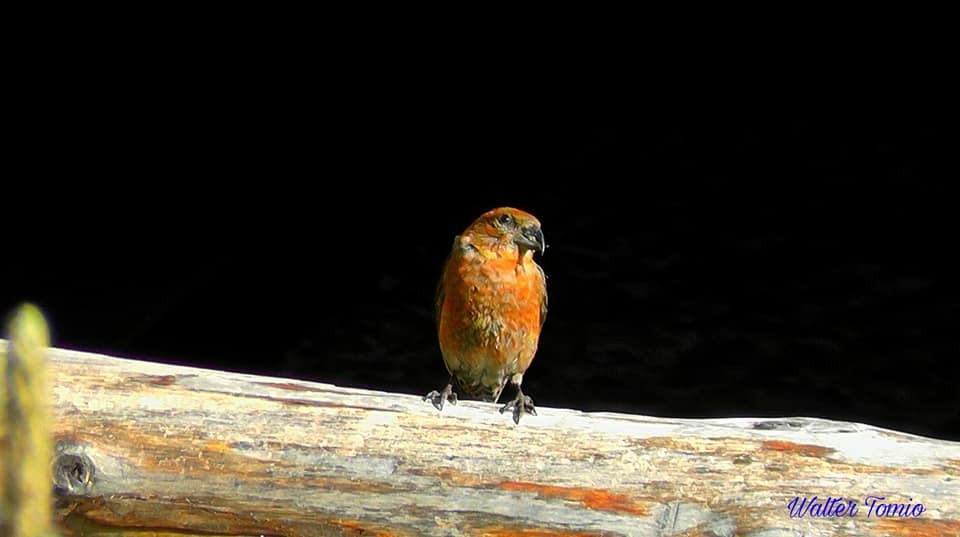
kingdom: Animalia
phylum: Chordata
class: Aves
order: Passeriformes
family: Fringillidae
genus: Loxia
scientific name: Loxia curvirostra
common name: Red crossbill
